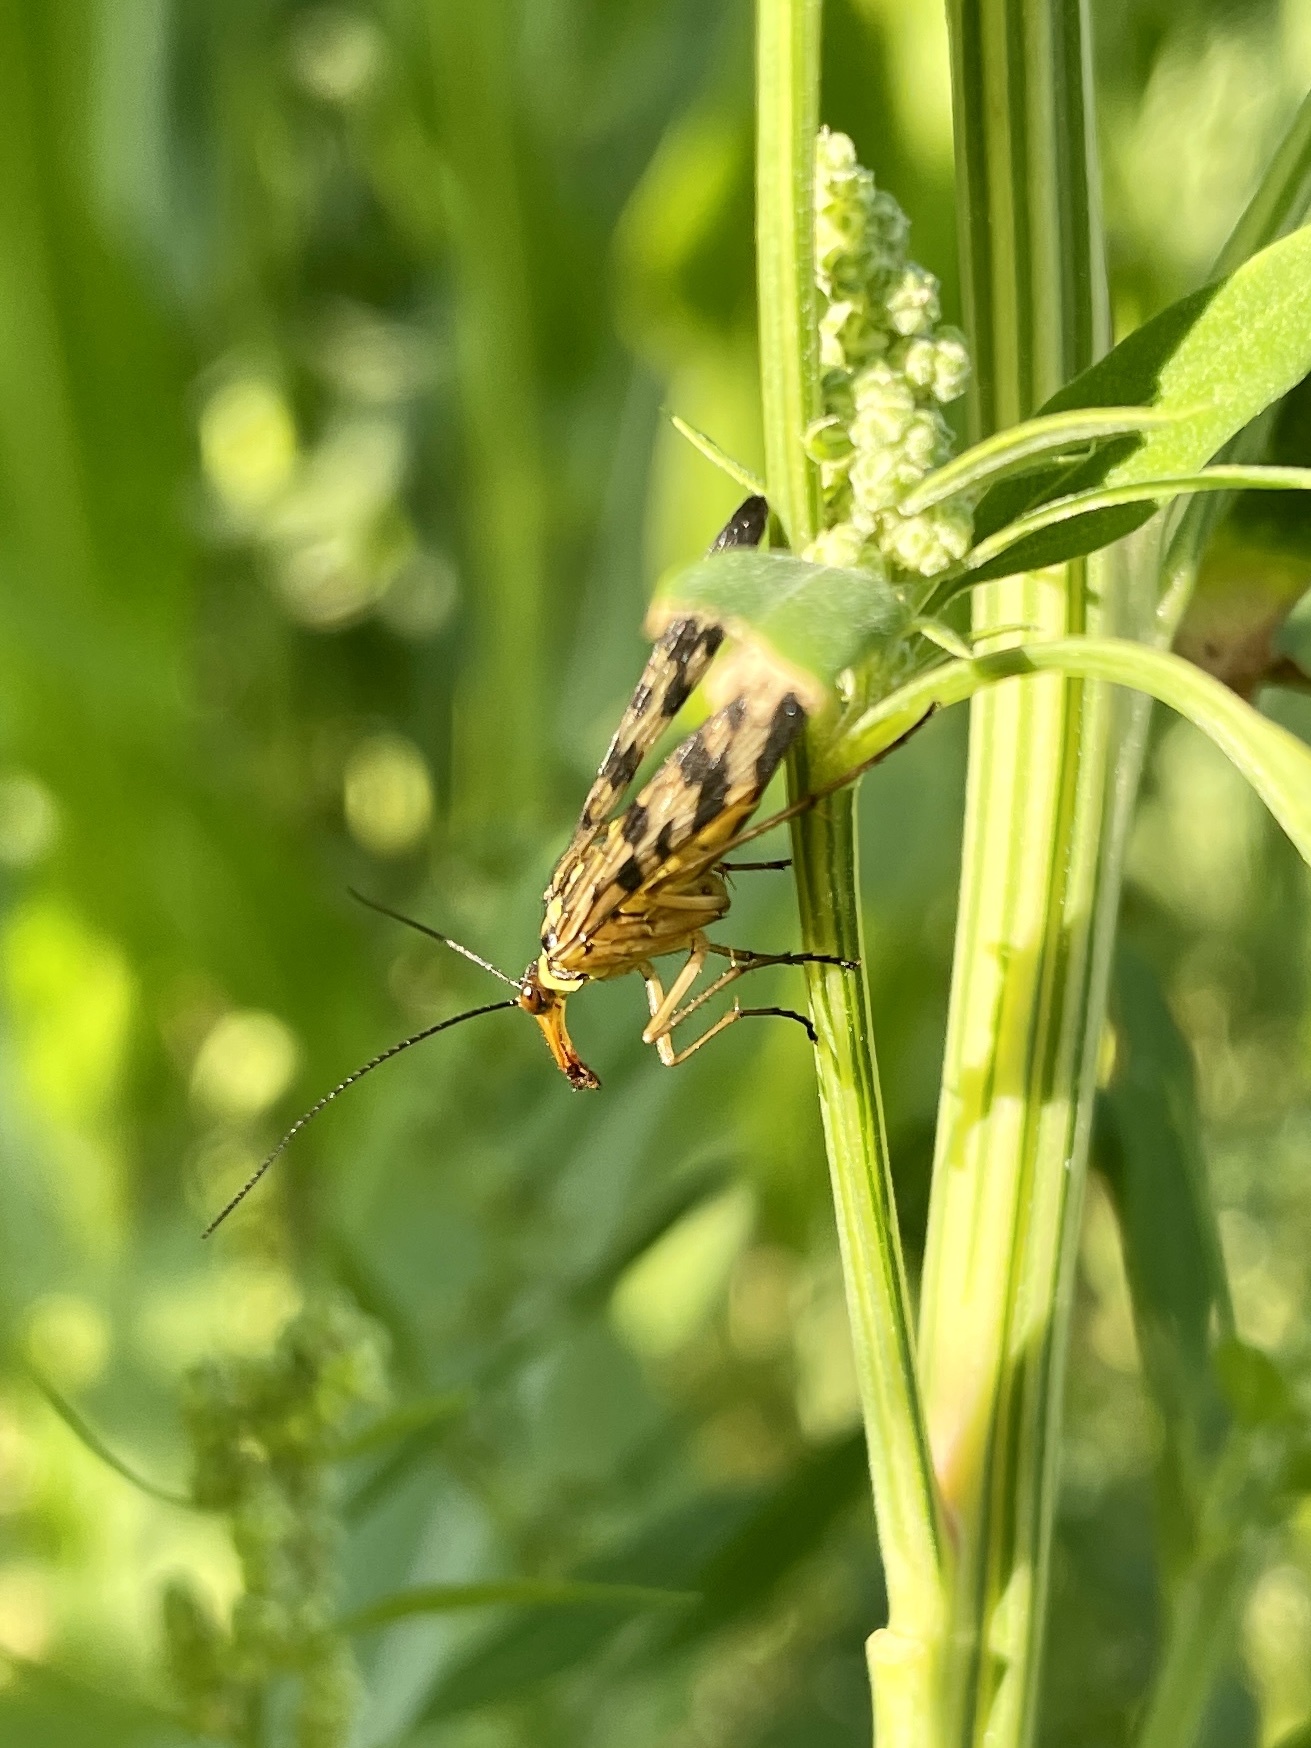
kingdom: Animalia
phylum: Arthropoda
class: Insecta
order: Mecoptera
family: Panorpidae
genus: Panorpa
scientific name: Panorpa communis
